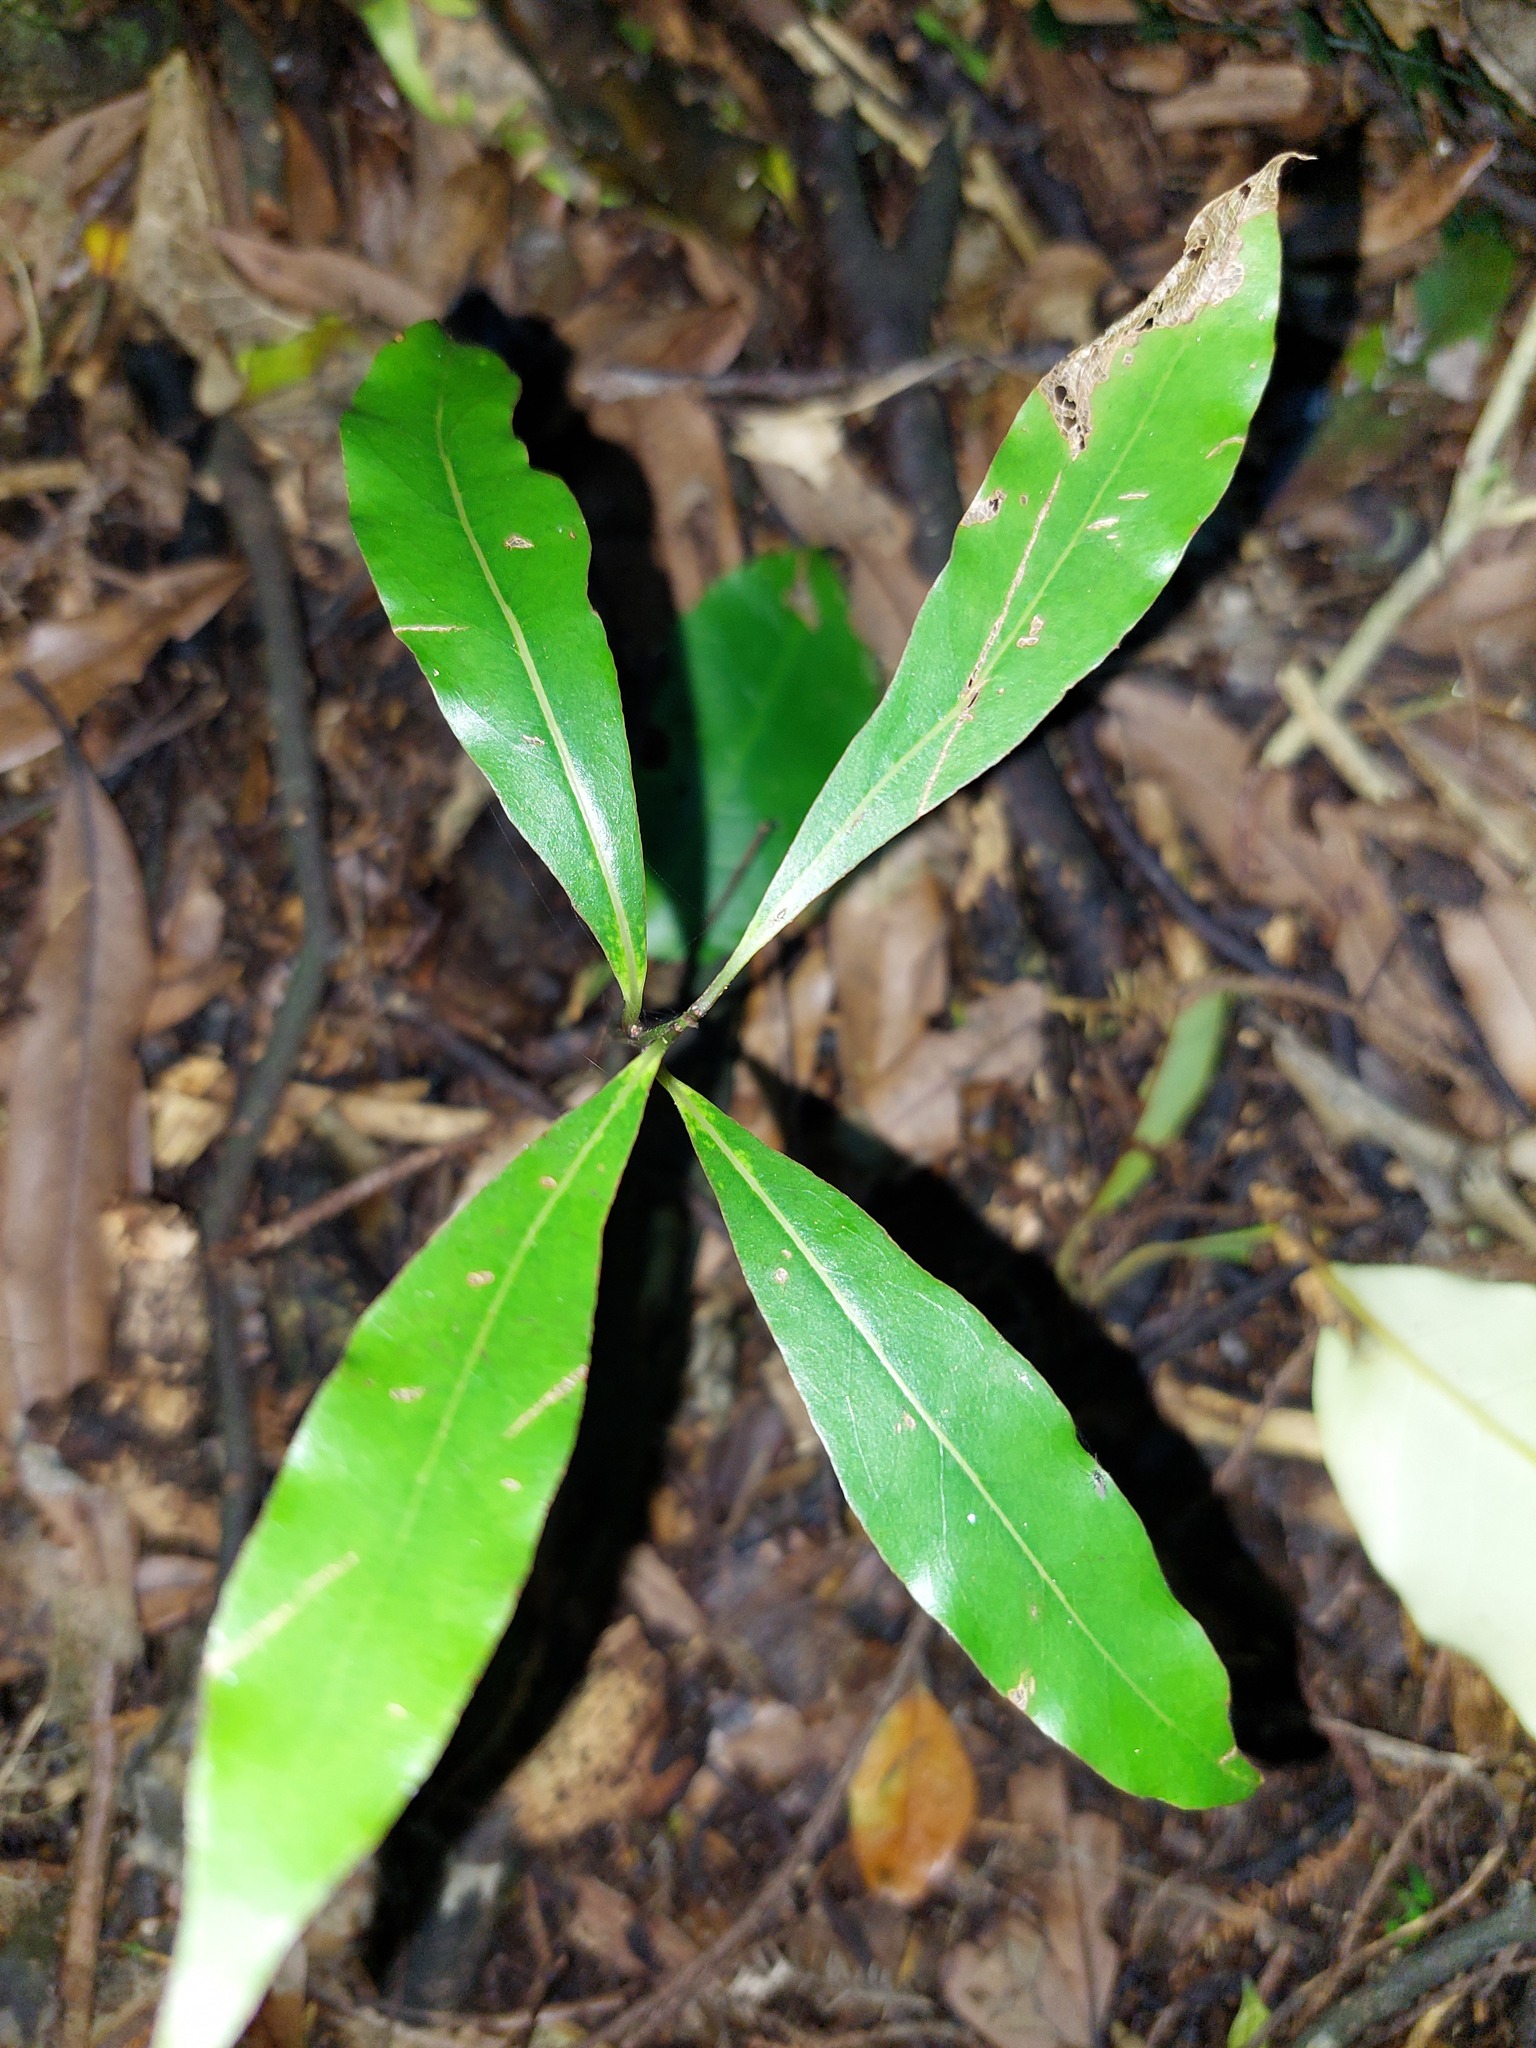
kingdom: Plantae
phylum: Tracheophyta
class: Magnoliopsida
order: Laurales
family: Lauraceae
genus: Beilschmiedia
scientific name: Beilschmiedia tawa
